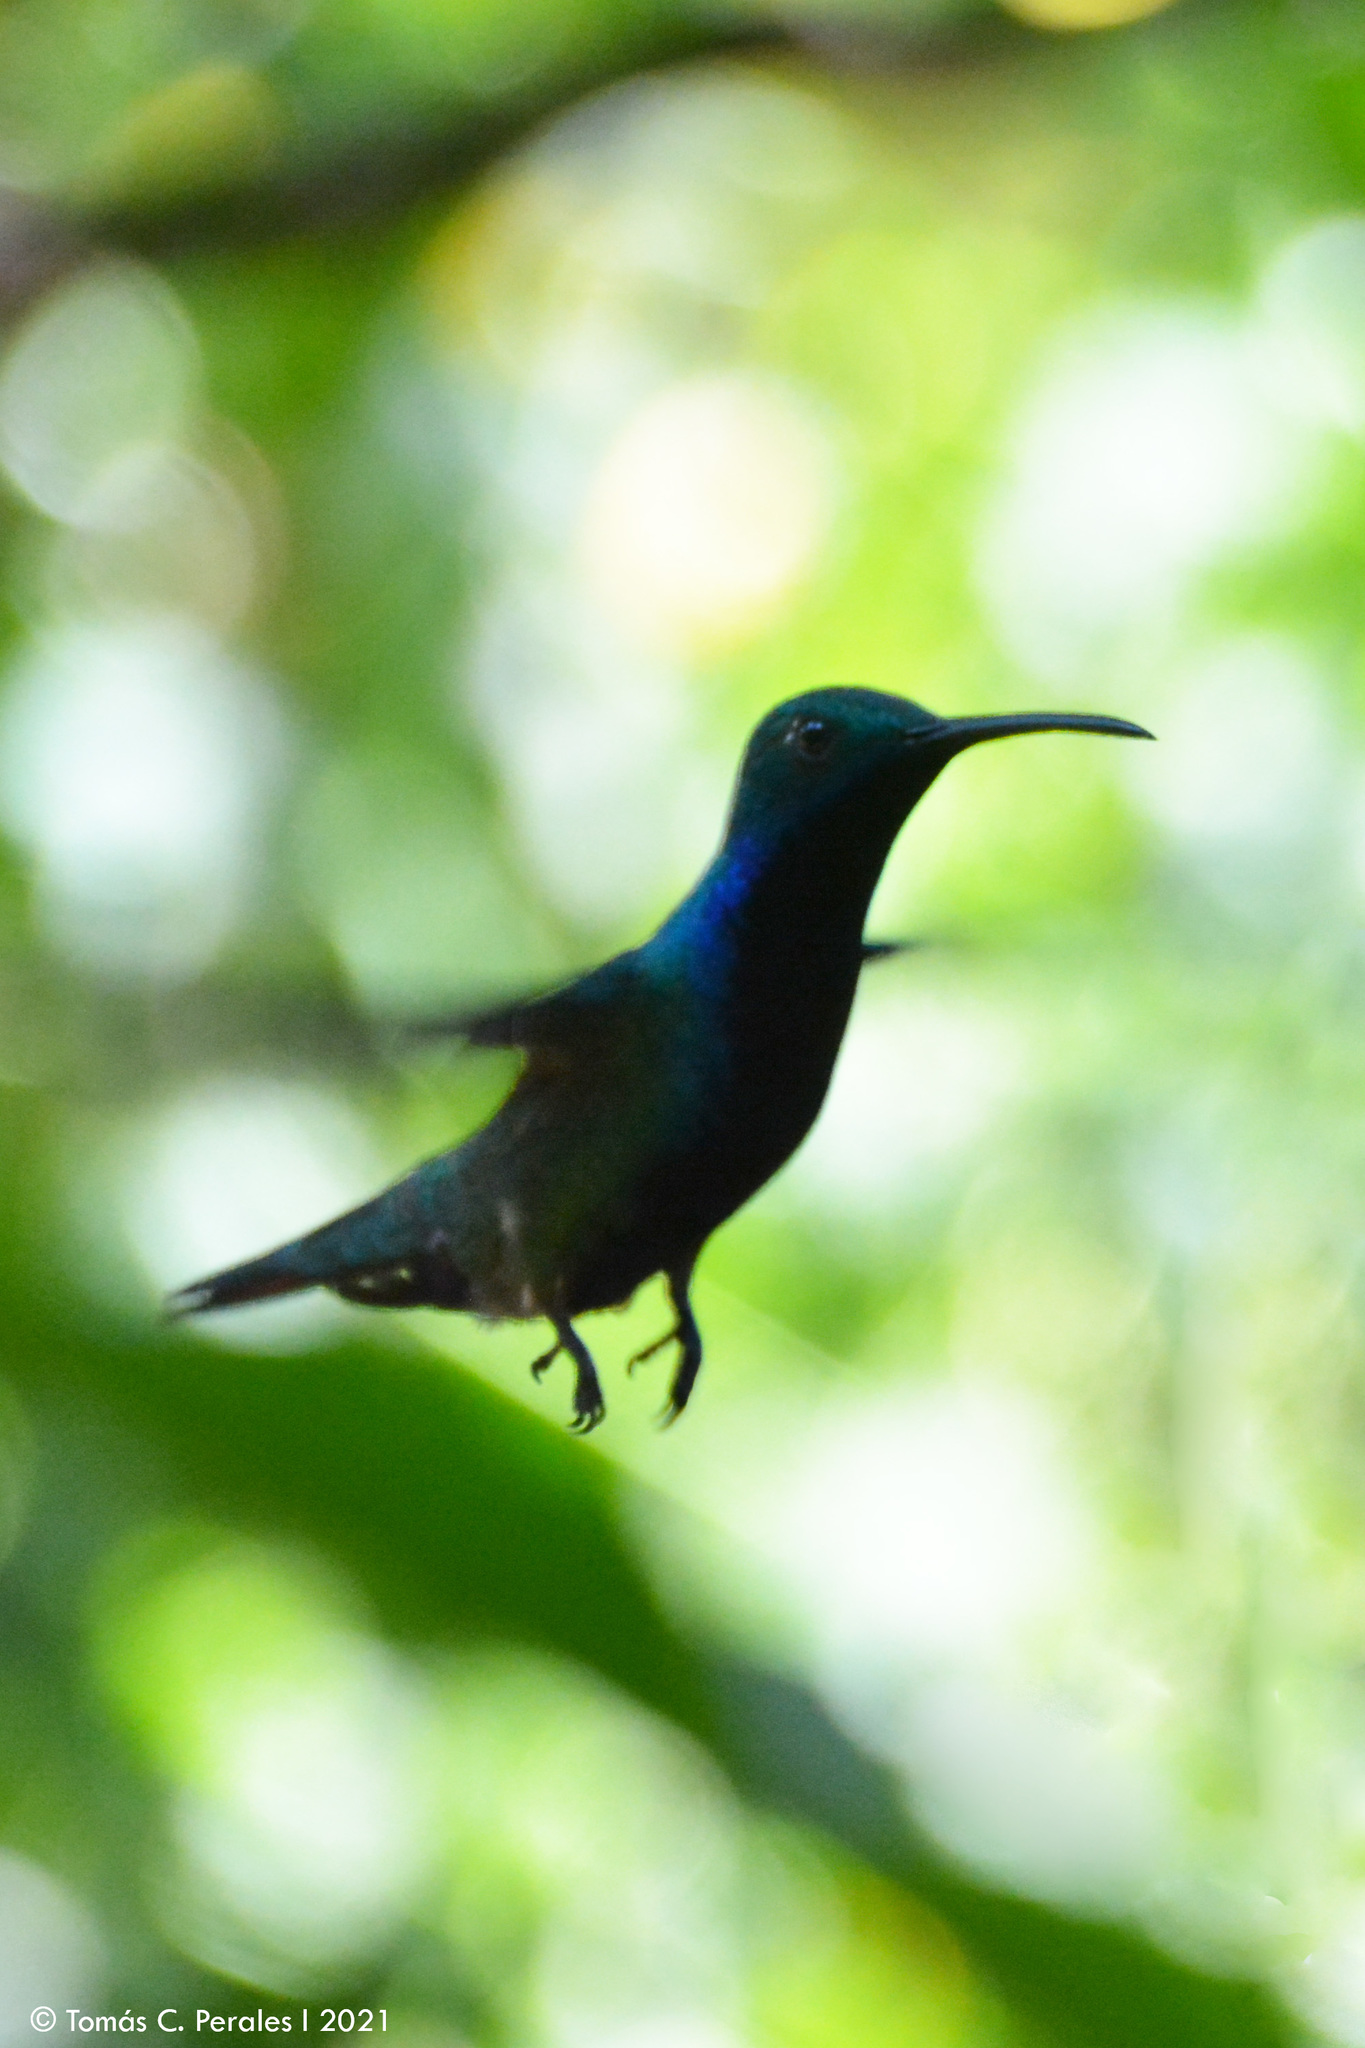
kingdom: Animalia
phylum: Chordata
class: Aves
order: Apodiformes
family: Trochilidae
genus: Anthracothorax
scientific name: Anthracothorax nigricollis
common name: Black-throated mango
